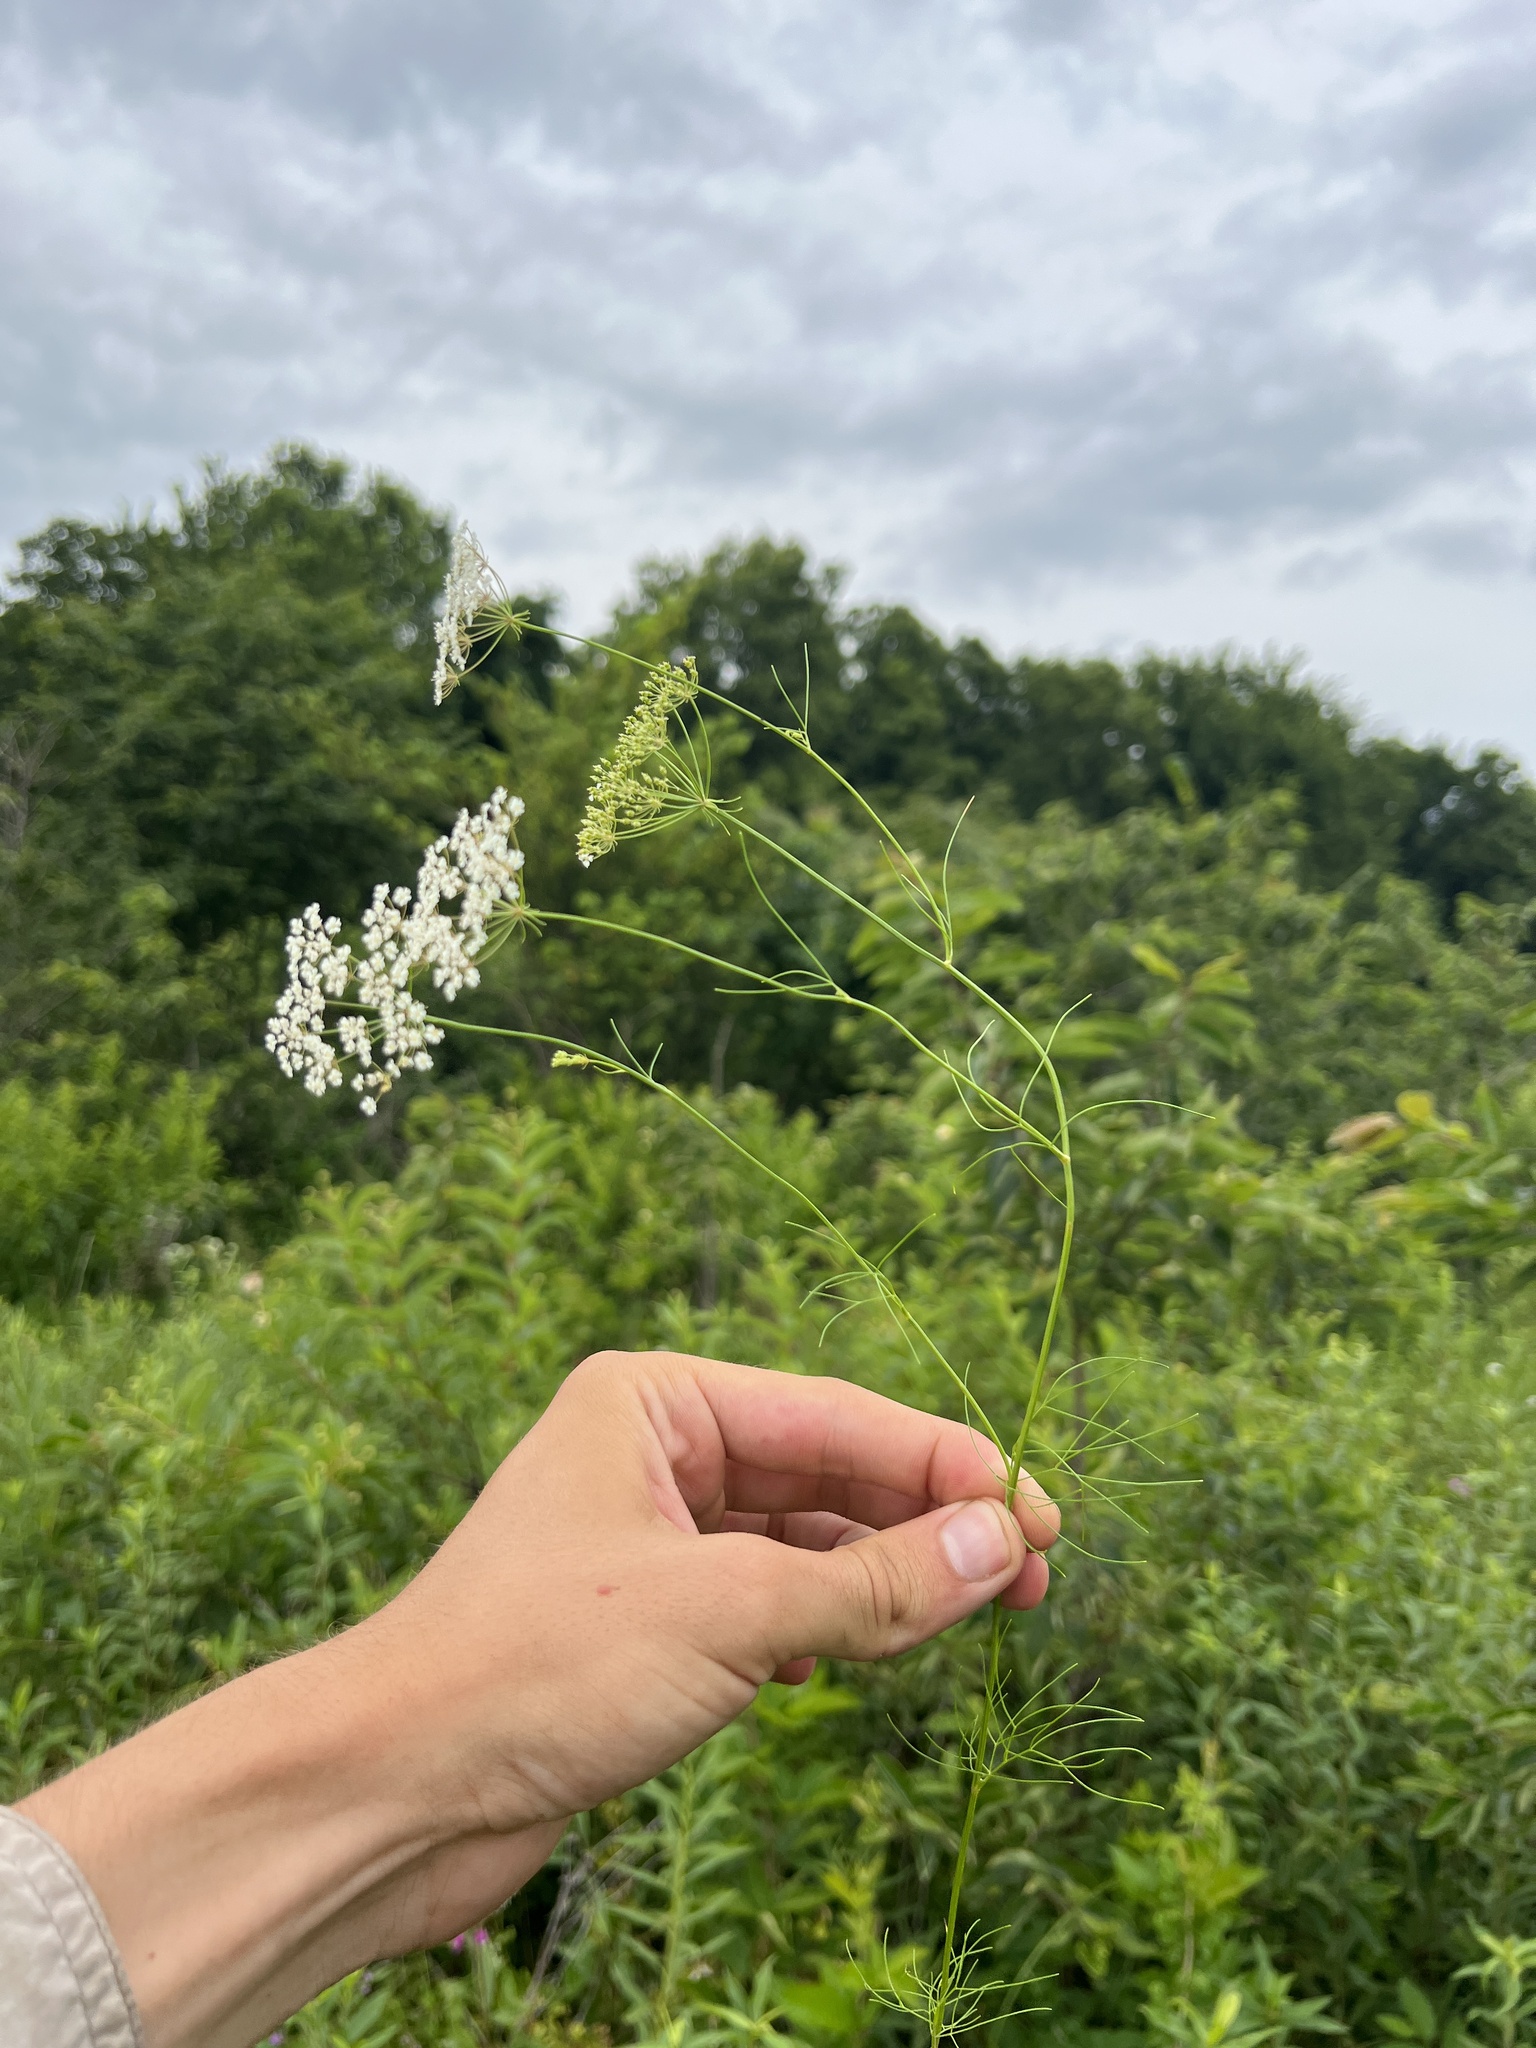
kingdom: Plantae
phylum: Tracheophyta
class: Magnoliopsida
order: Apiales
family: Apiaceae
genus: Ptilimnium
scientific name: Ptilimnium nuttallii
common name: Ozark bishop's-weed
